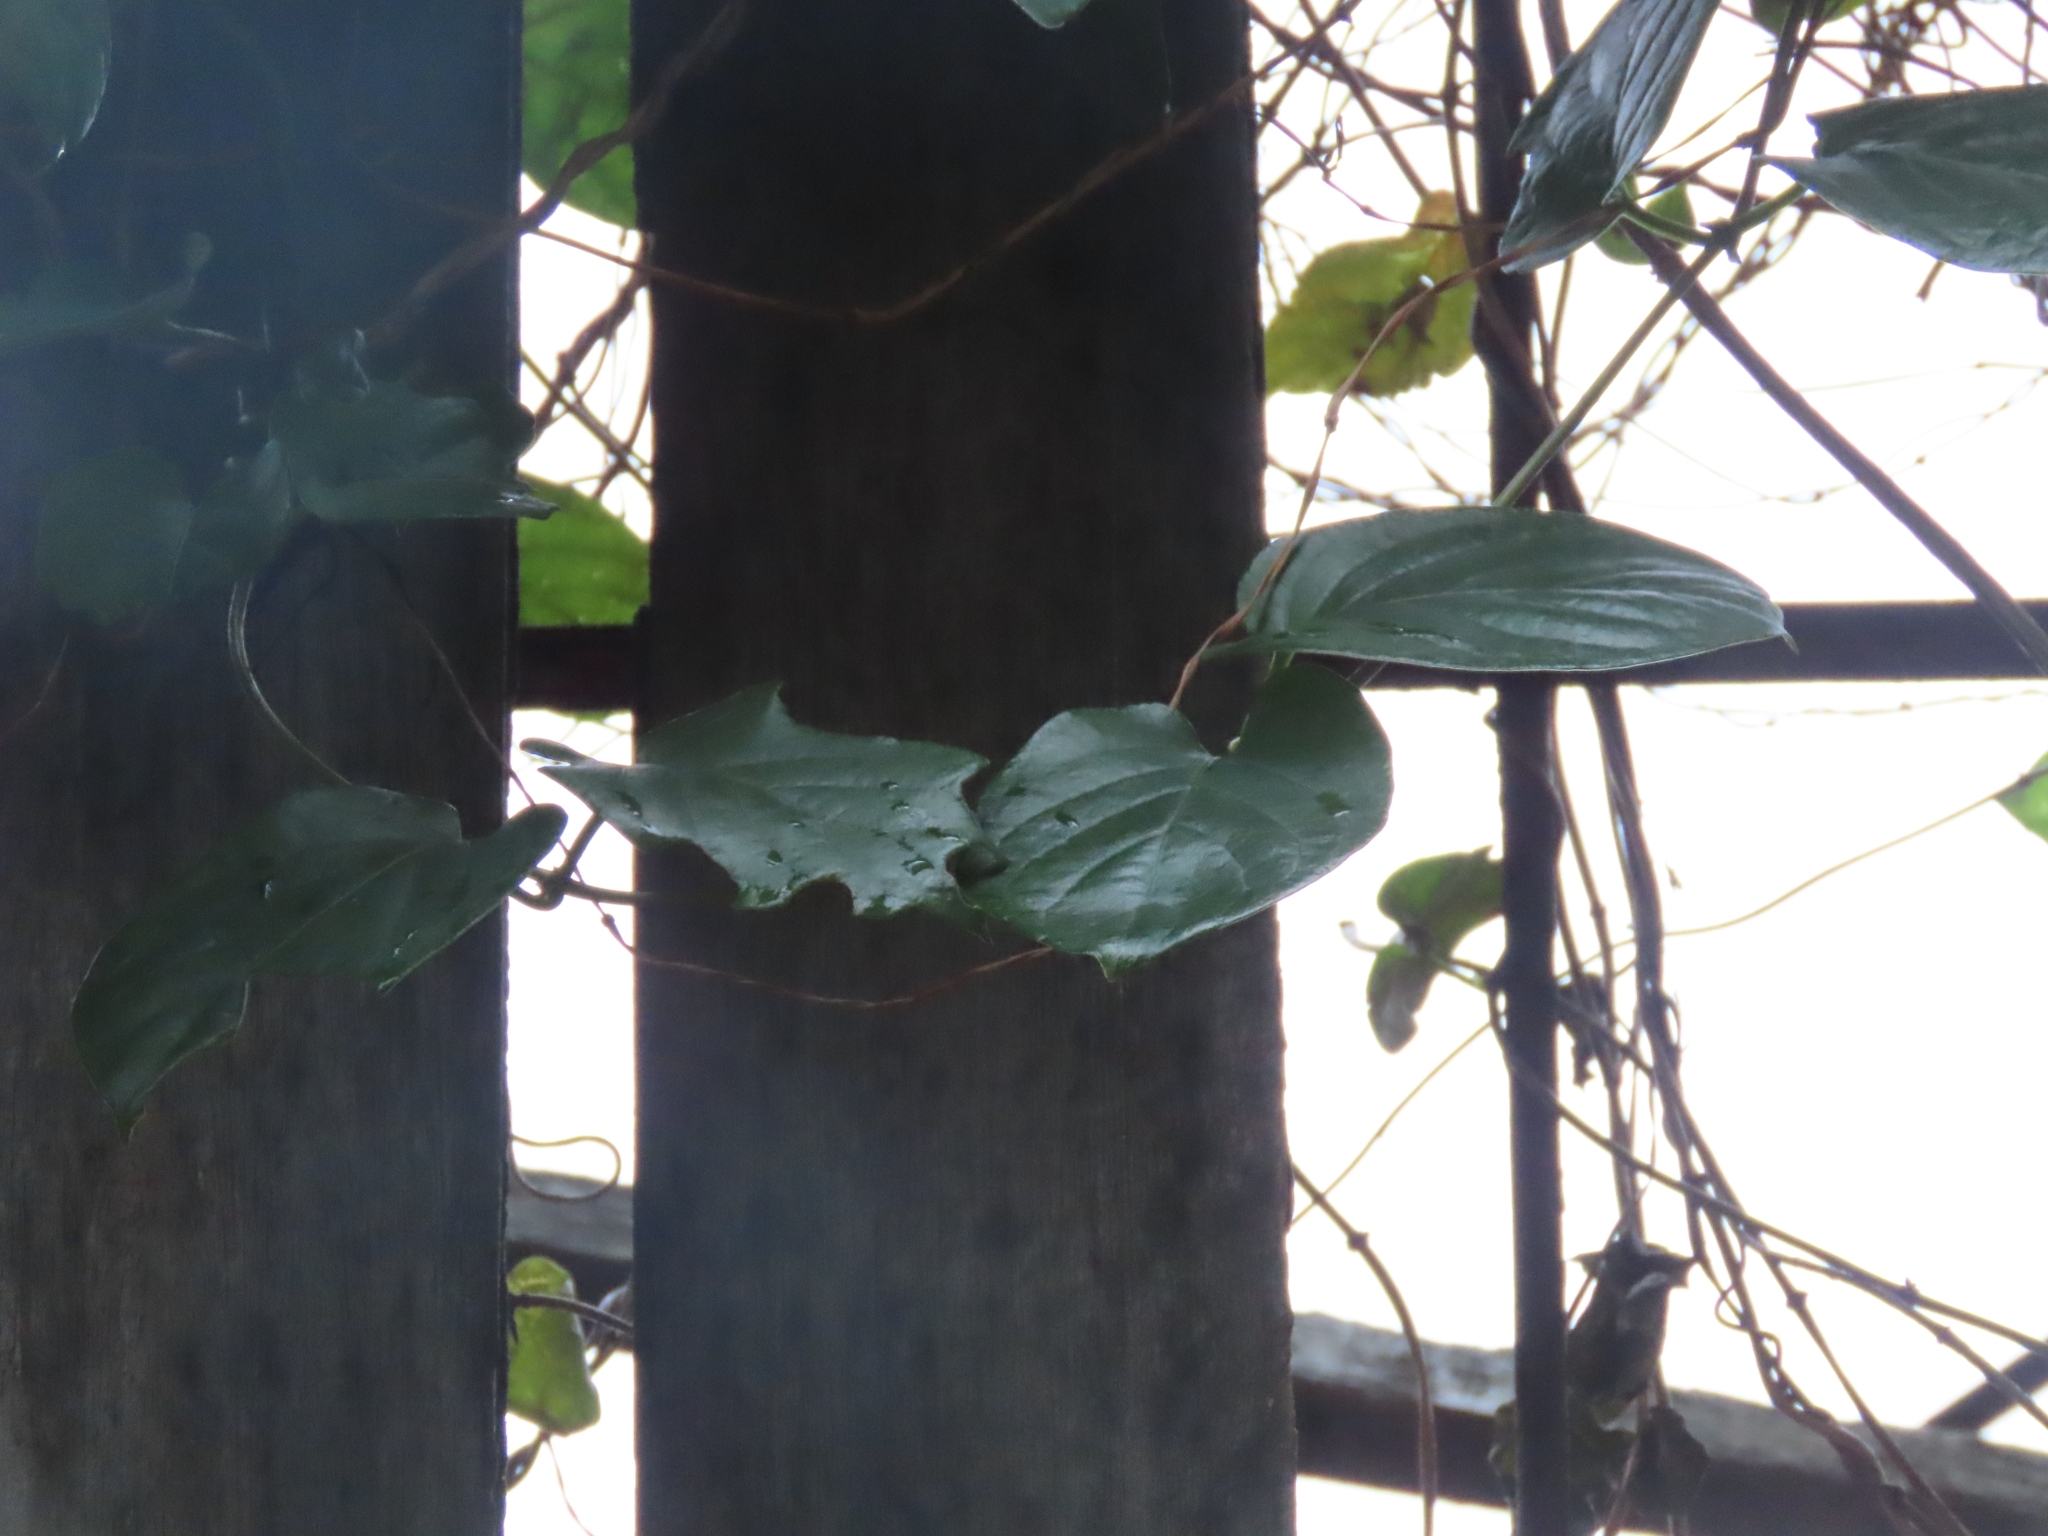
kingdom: Plantae
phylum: Tracheophyta
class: Magnoliopsida
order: Gentianales
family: Rubiaceae
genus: Paederia
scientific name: Paederia foetida
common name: Stinkvine
